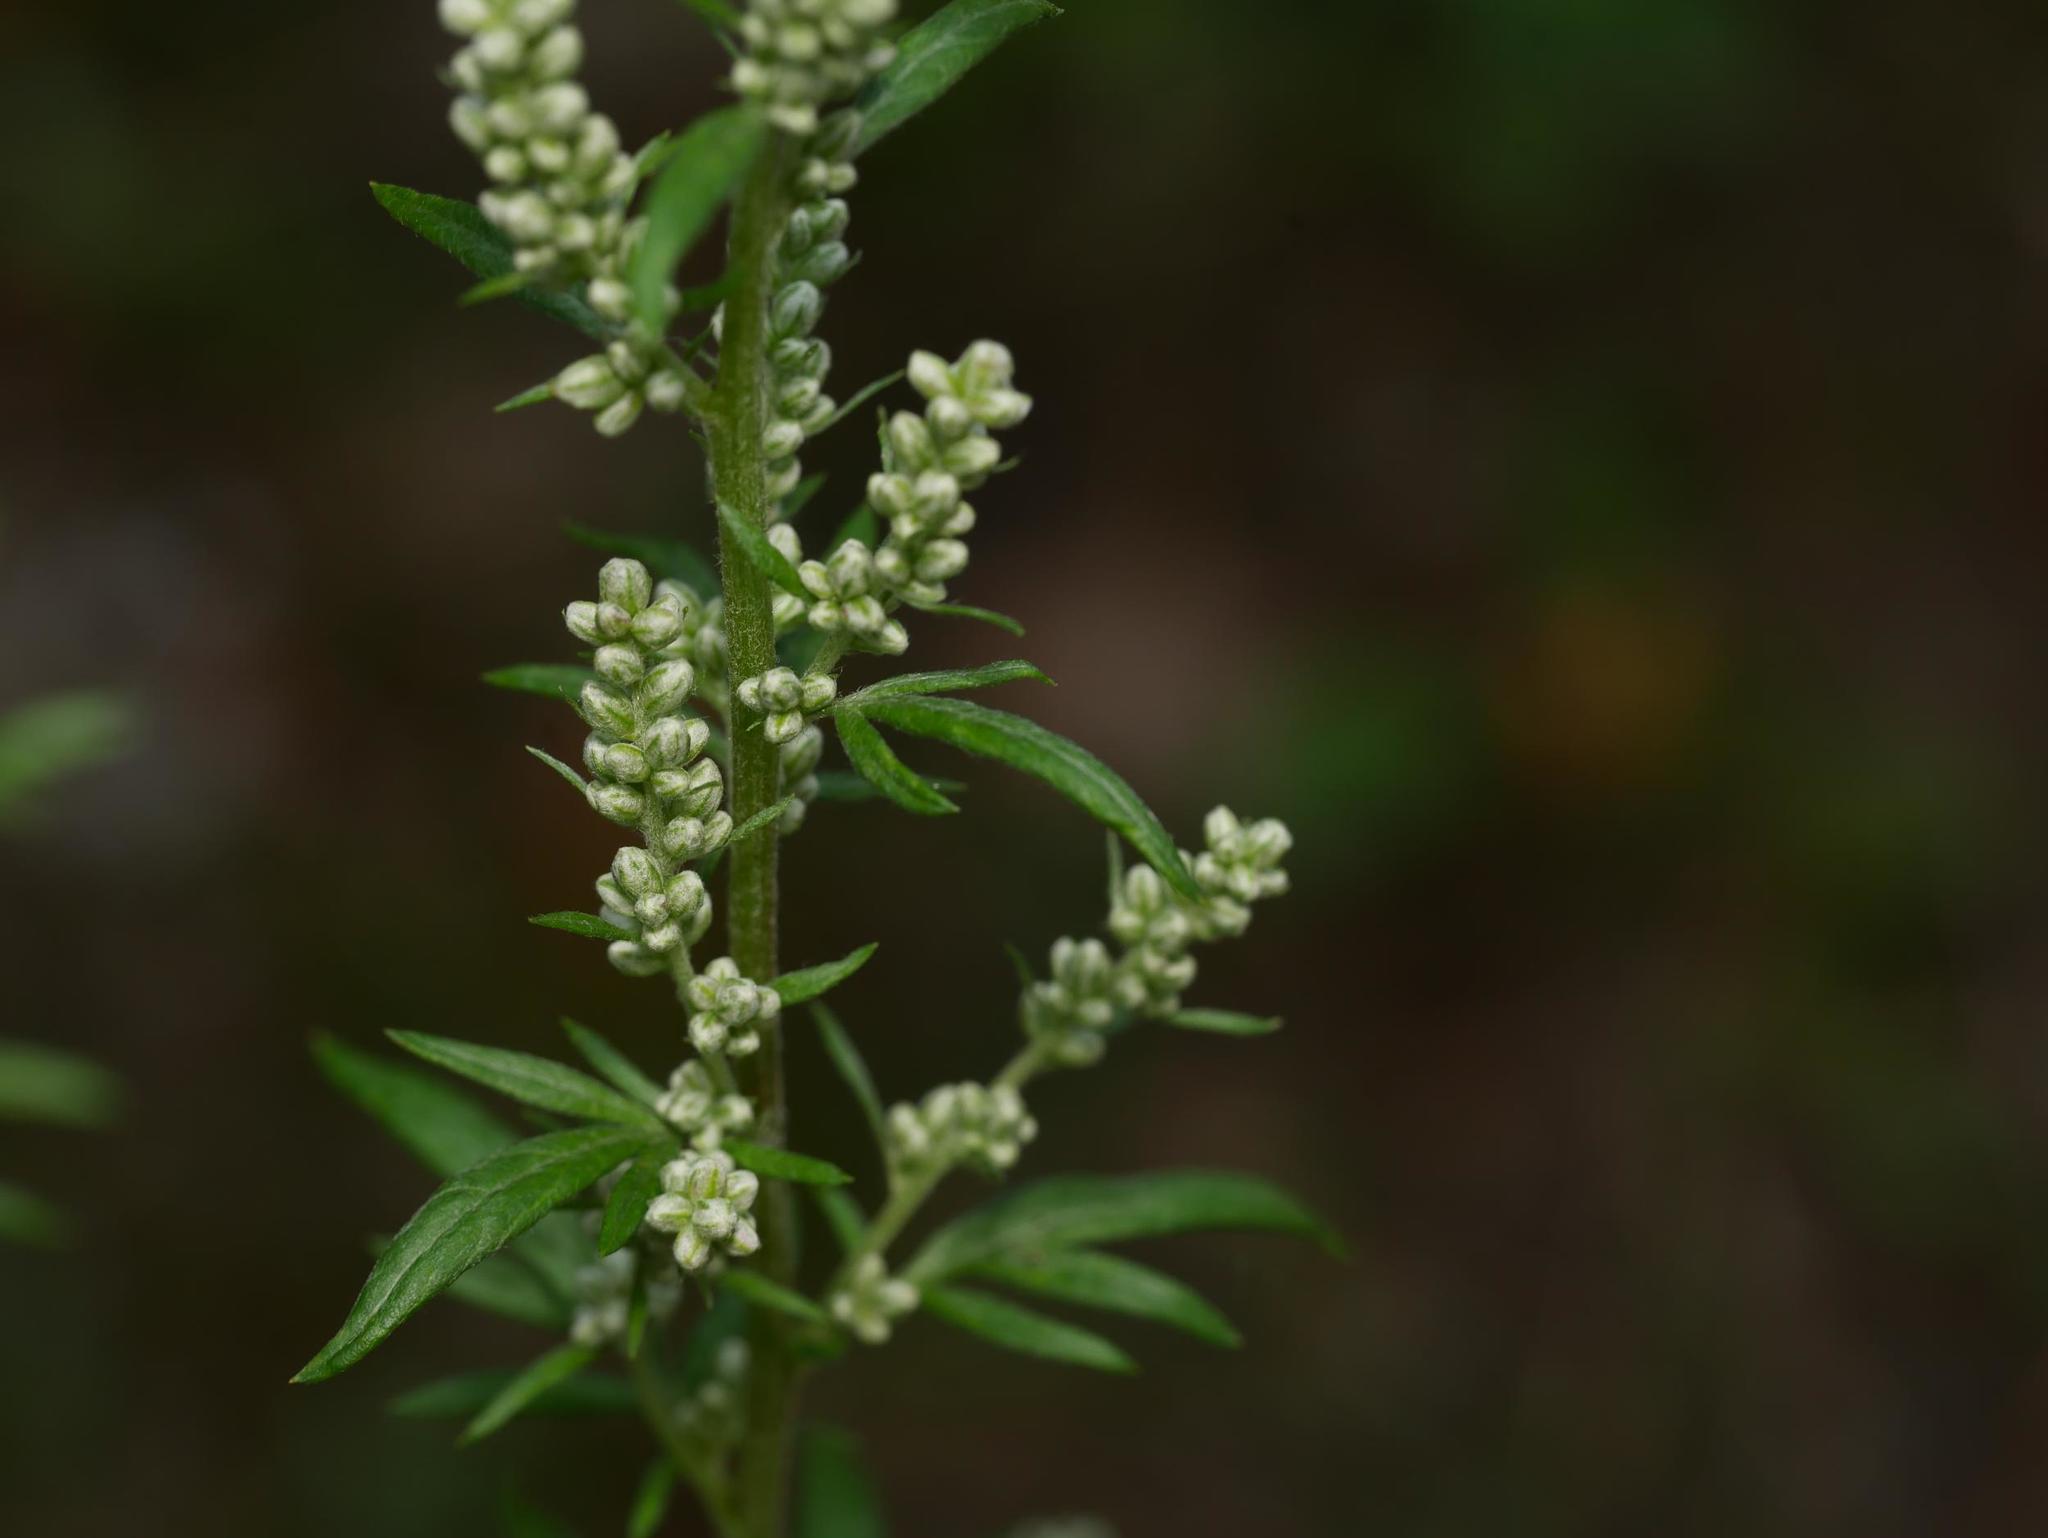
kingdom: Plantae
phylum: Tracheophyta
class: Magnoliopsida
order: Asterales
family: Asteraceae
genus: Artemisia
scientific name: Artemisia vulgaris
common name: Mugwort
